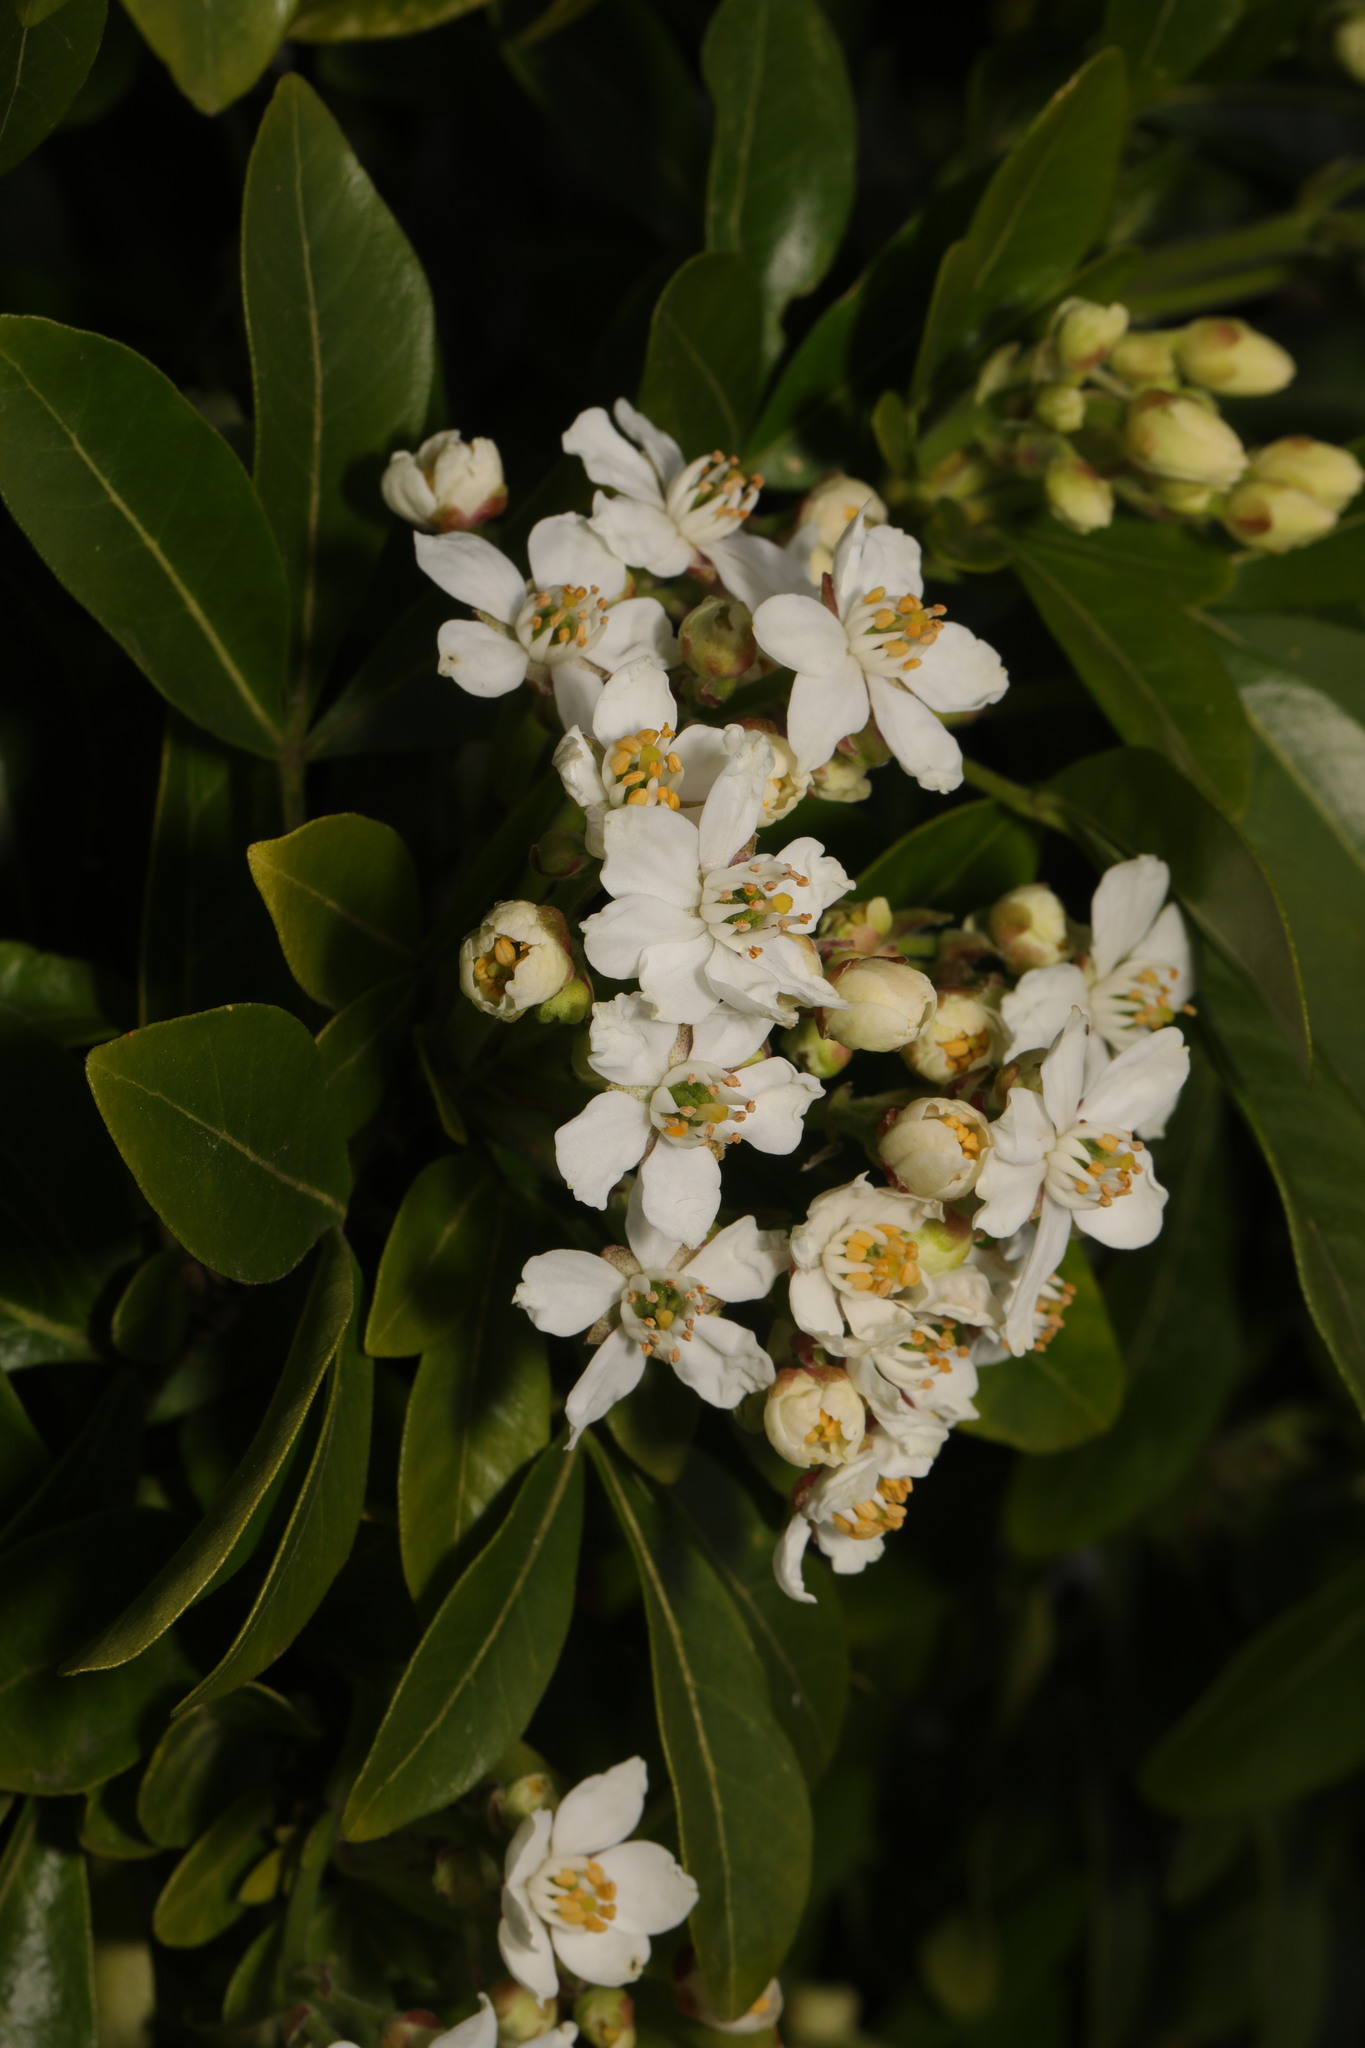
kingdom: Plantae
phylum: Tracheophyta
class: Magnoliopsida
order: Sapindales
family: Rutaceae
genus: Choisya
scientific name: Choisya ternata
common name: Mexican orange
